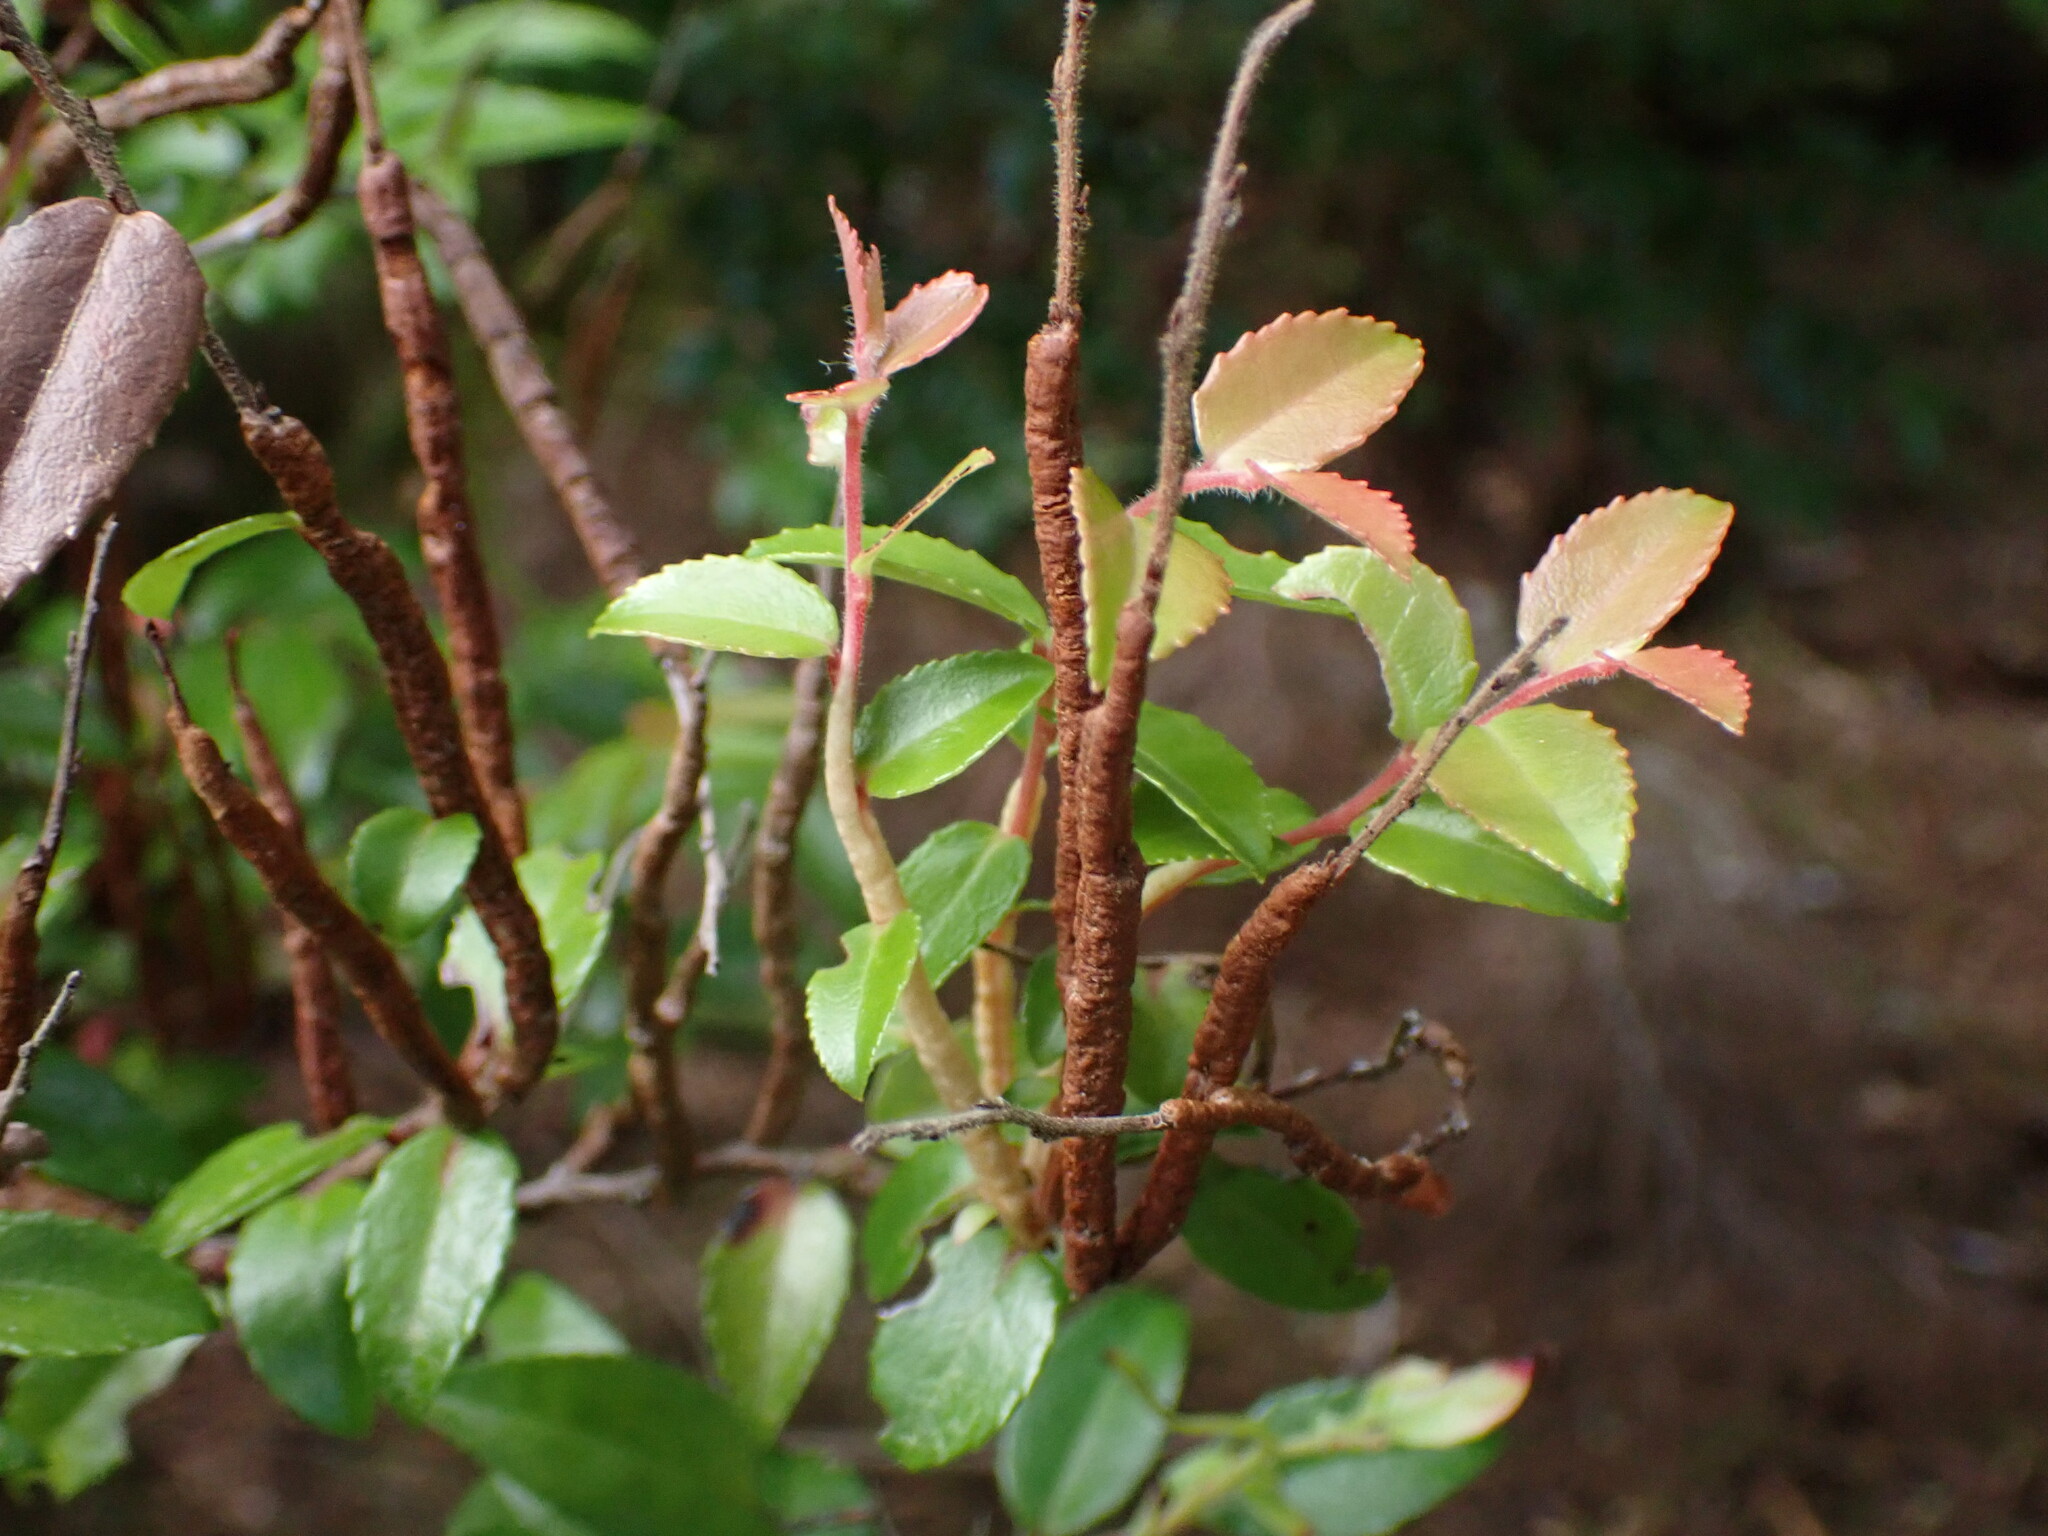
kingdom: Fungi
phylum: Basidiomycota
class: Pucciniomycetes
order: Pucciniales
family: Pucciniastraceae
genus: Calyptospora
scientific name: Calyptospora
